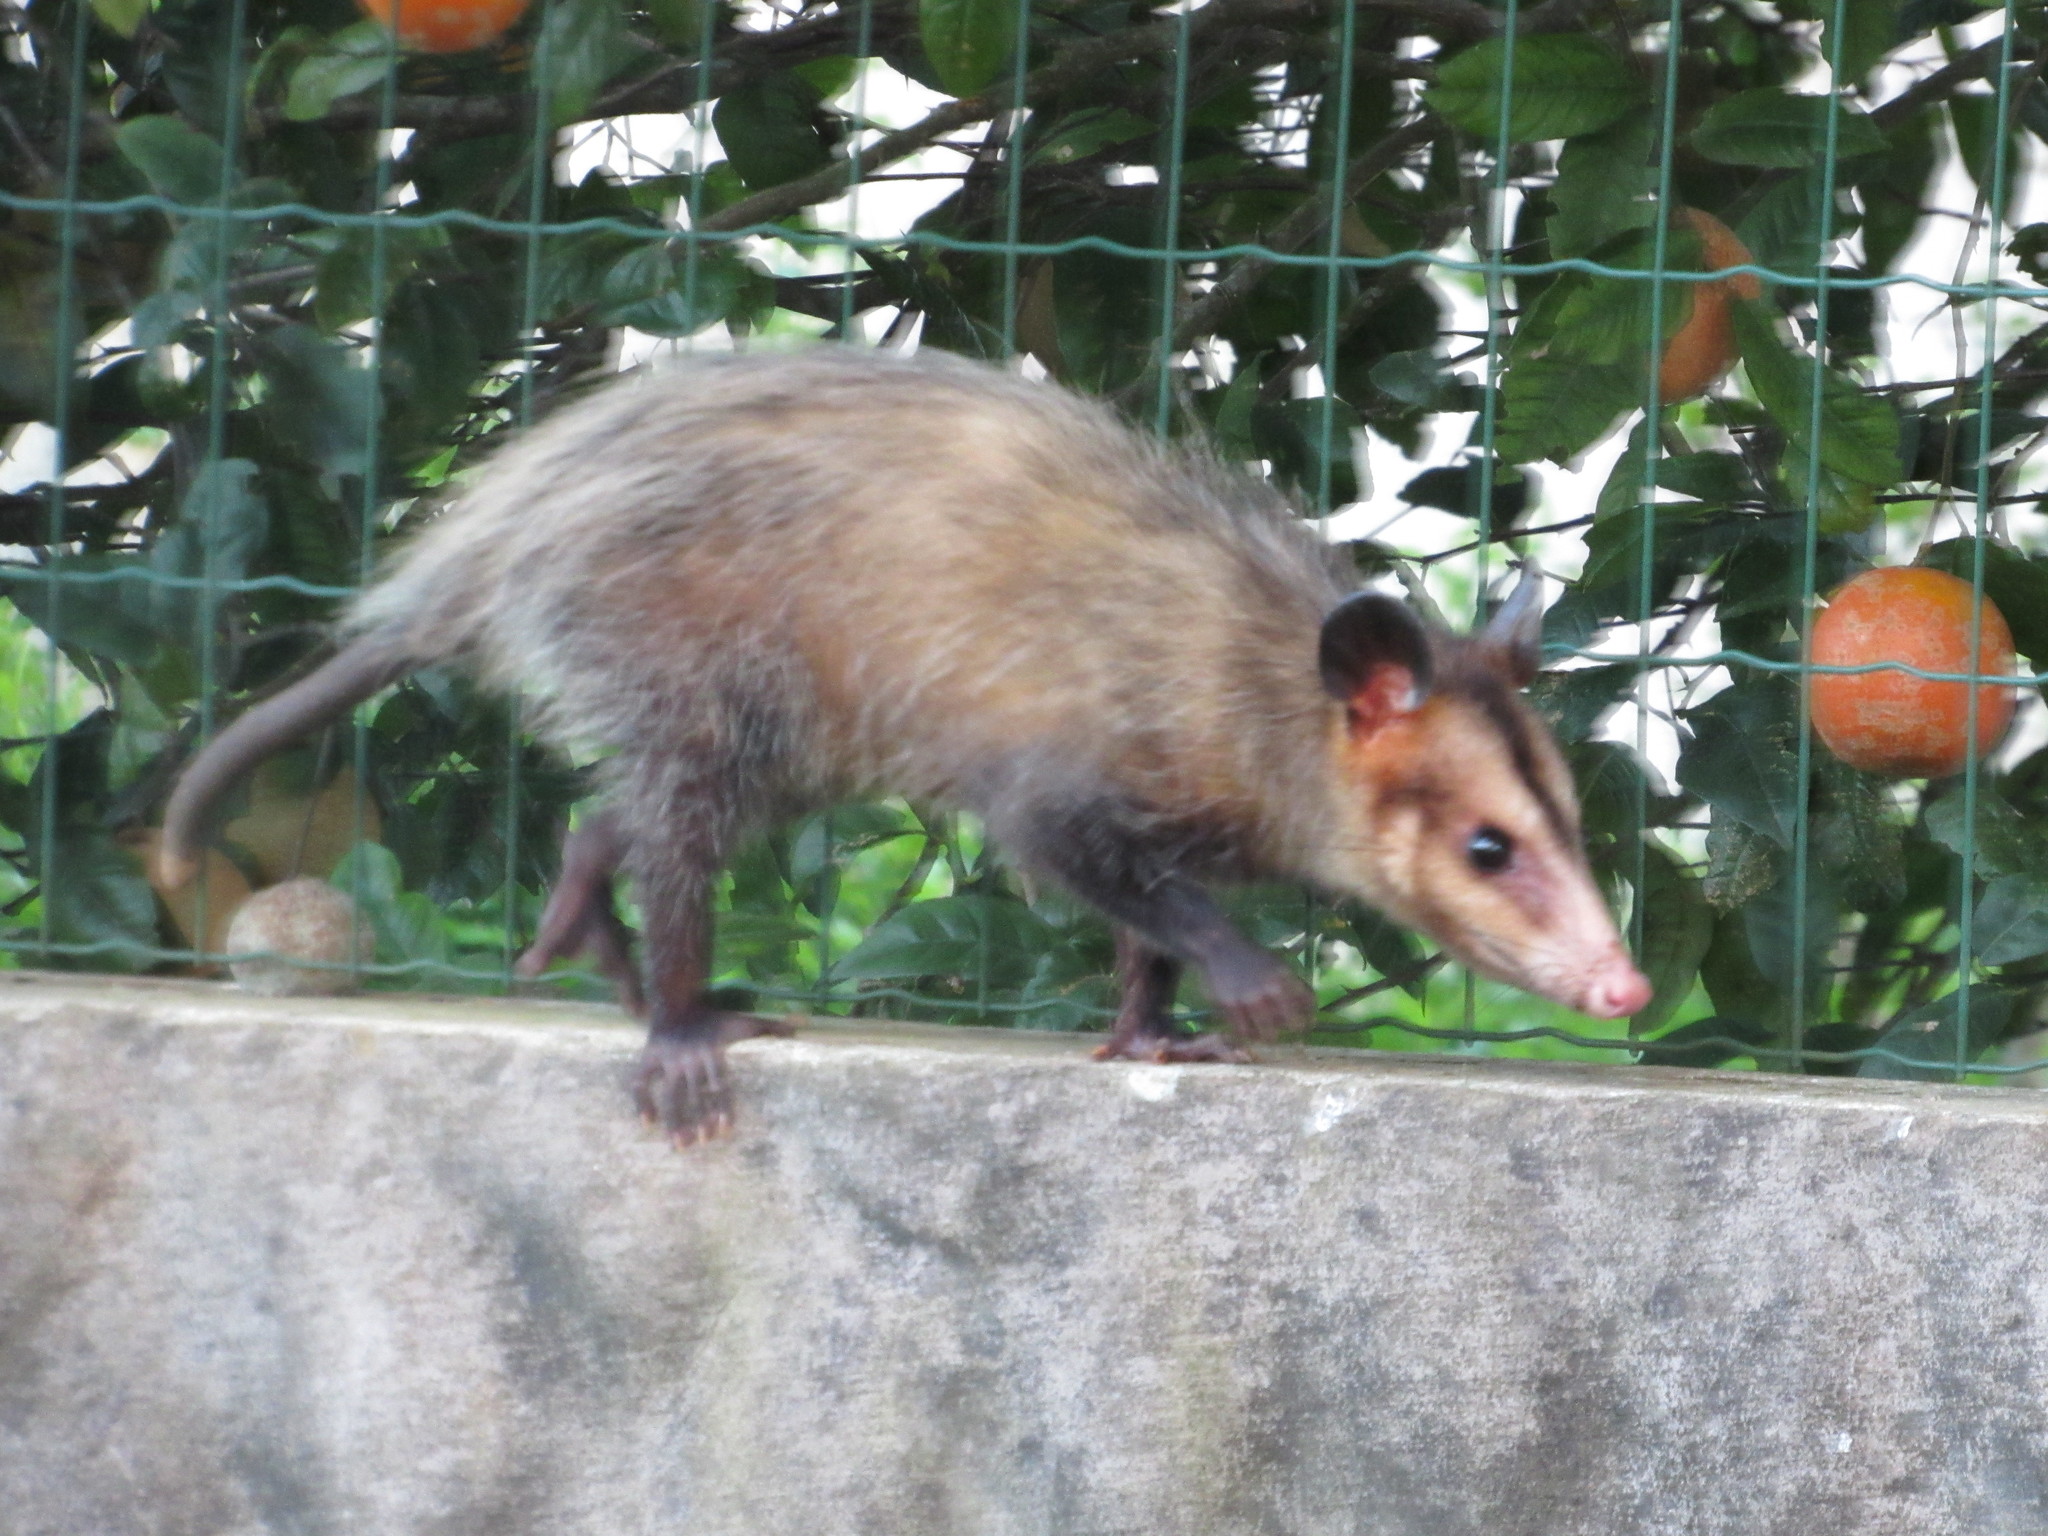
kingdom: Animalia
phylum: Chordata
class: Mammalia
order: Didelphimorphia
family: Didelphidae
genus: Didelphis
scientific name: Didelphis aurita
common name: Big-eared opossum
